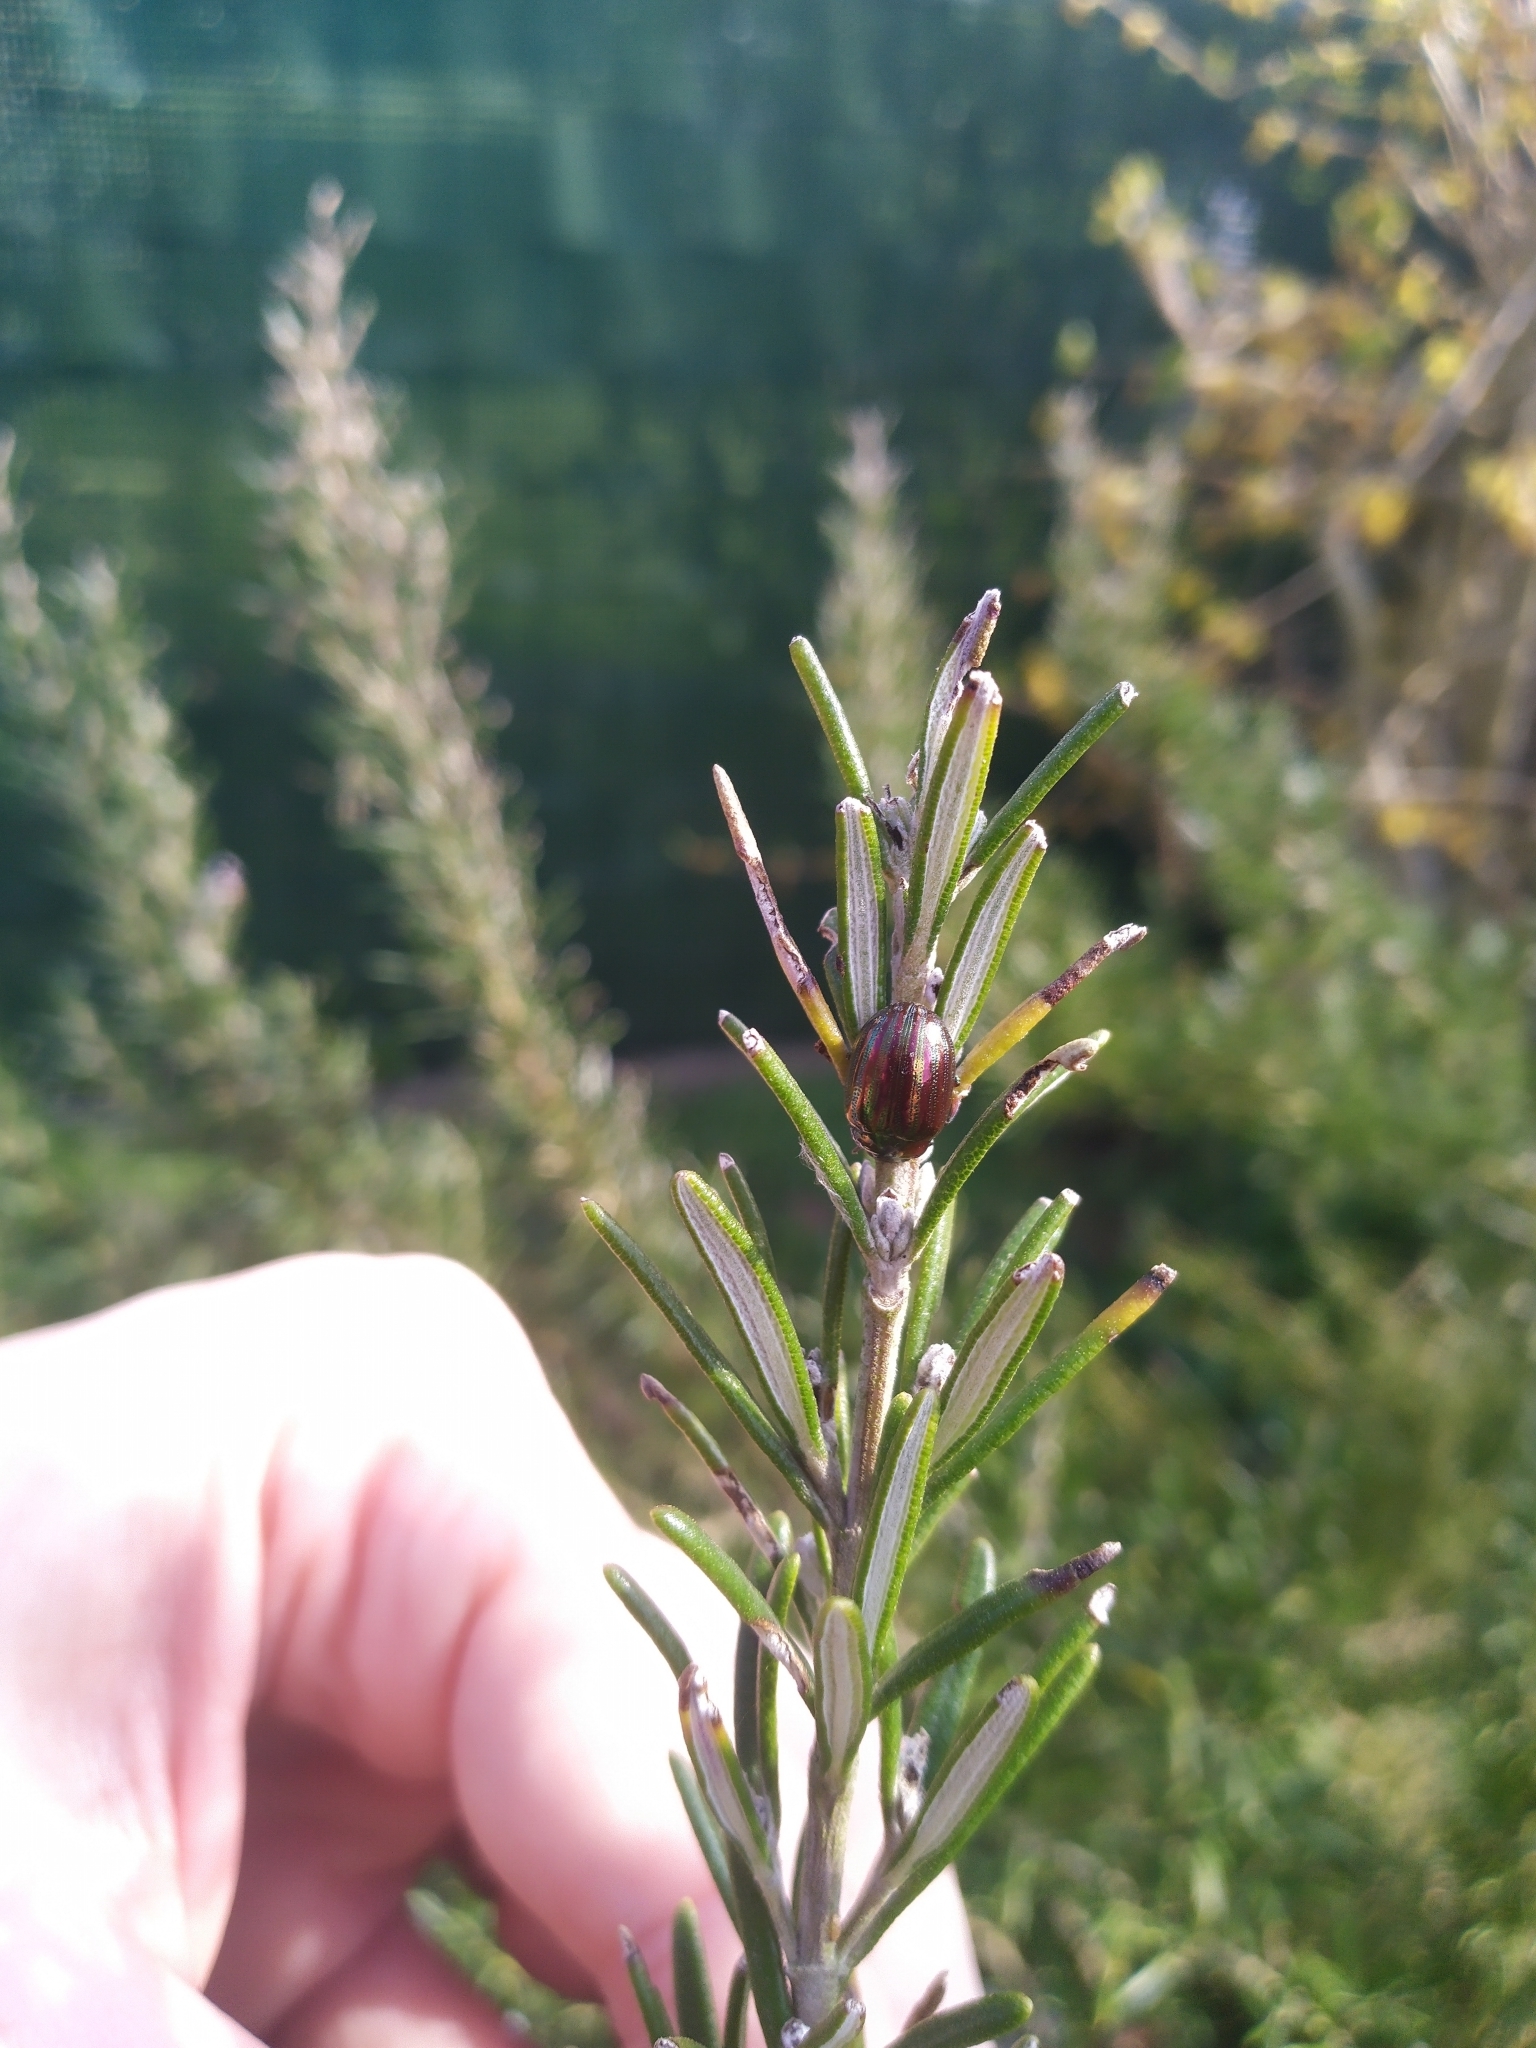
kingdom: Animalia
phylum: Arthropoda
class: Insecta
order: Coleoptera
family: Chrysomelidae
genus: Chrysolina
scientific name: Chrysolina americana
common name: Rosemary beetle
